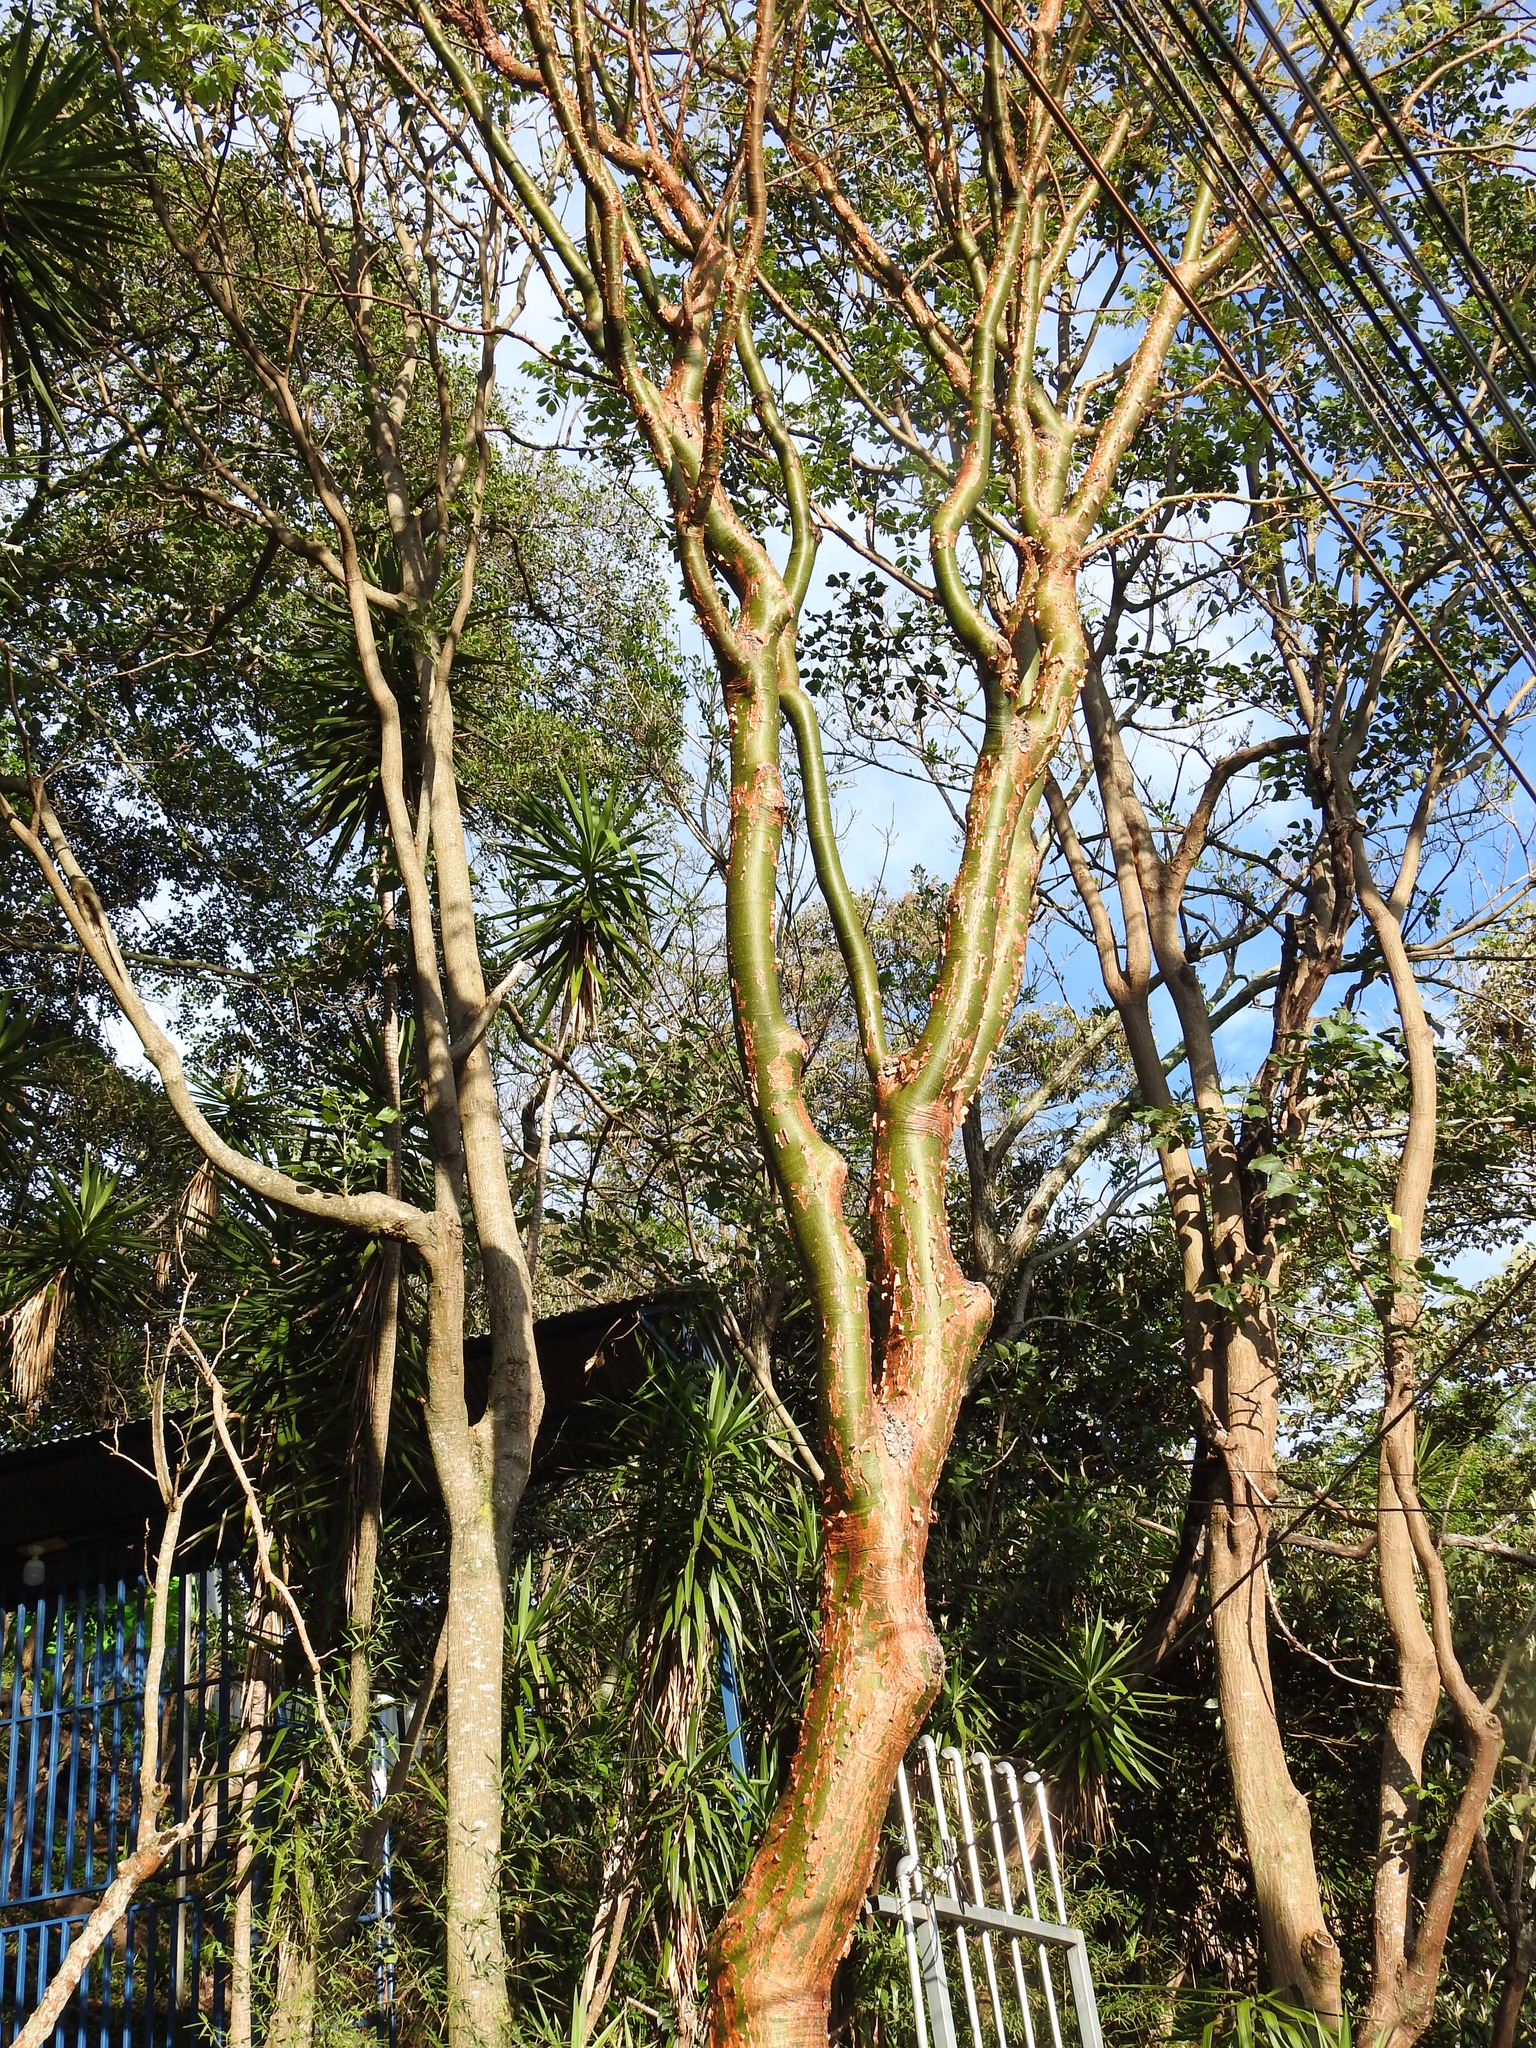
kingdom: Plantae
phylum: Tracheophyta
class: Magnoliopsida
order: Sapindales
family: Burseraceae
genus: Bursera
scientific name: Bursera simaruba
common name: Turpentine tree
